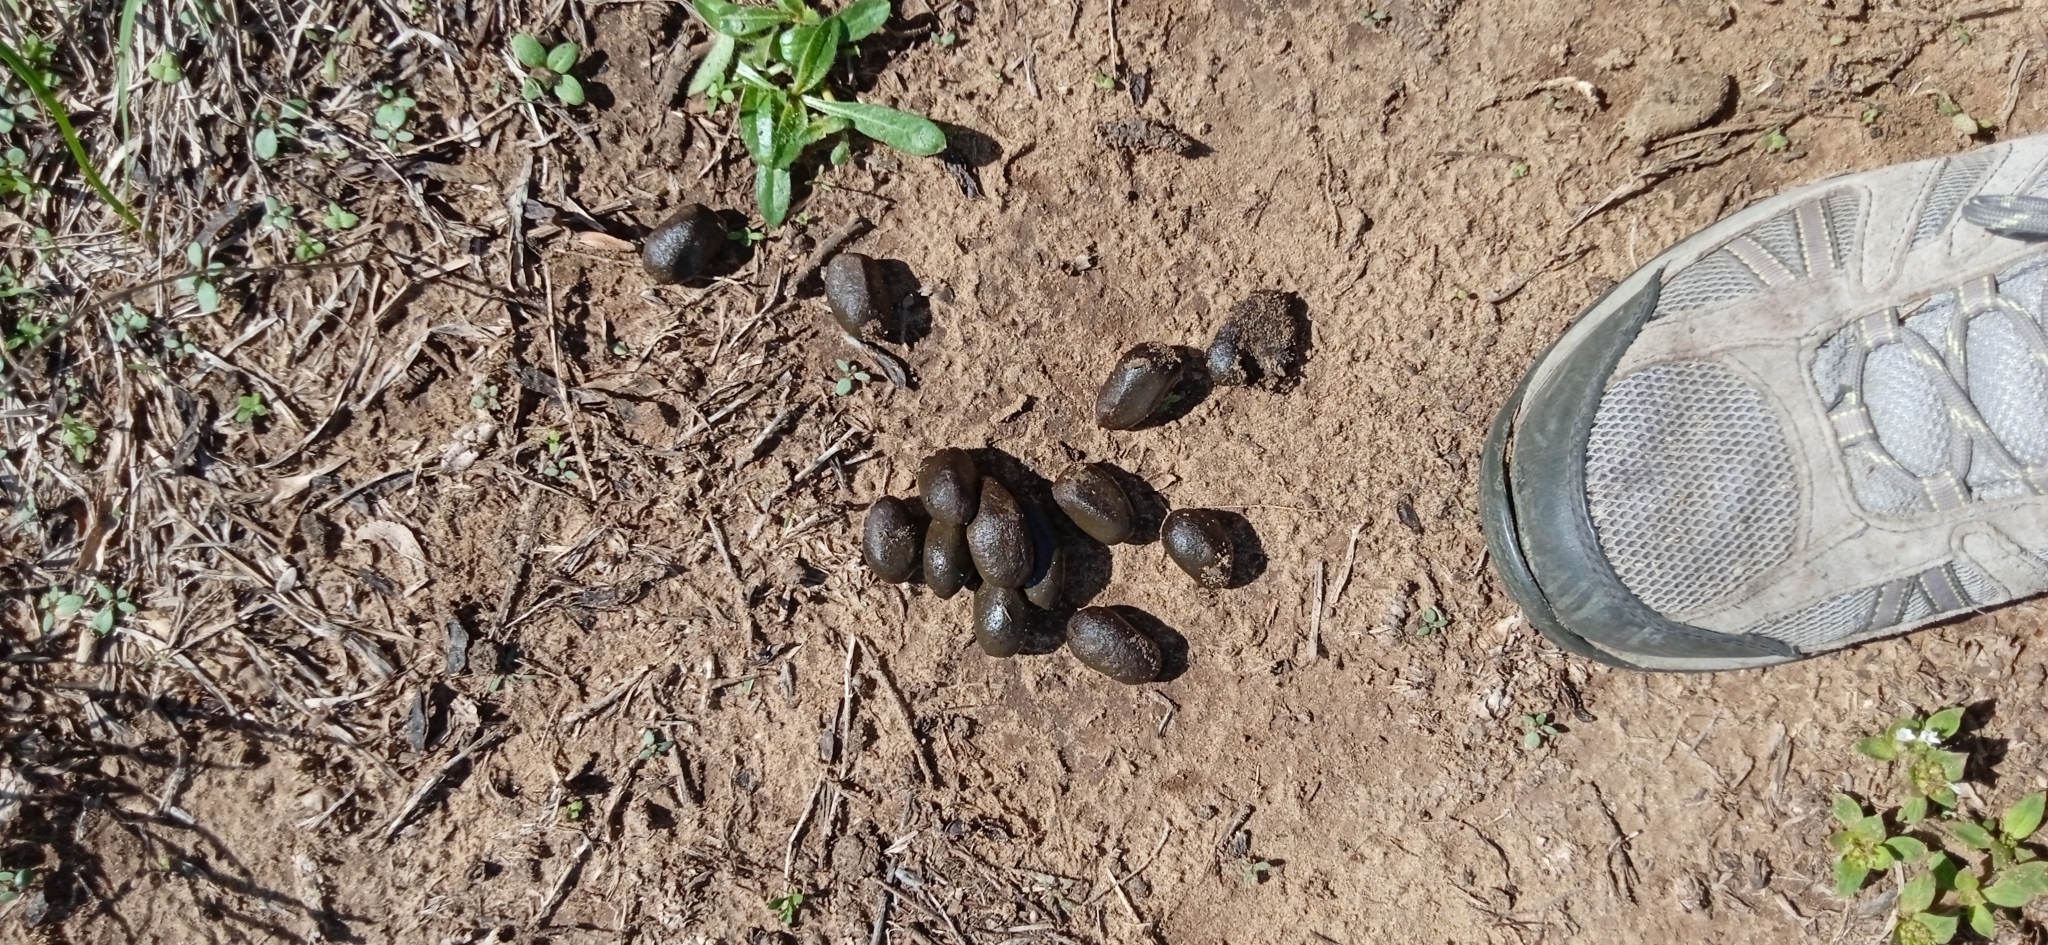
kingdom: Animalia
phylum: Chordata
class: Mammalia
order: Rodentia
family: Caviidae
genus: Hydrochoerus
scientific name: Hydrochoerus hydrochaeris
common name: Capybara
